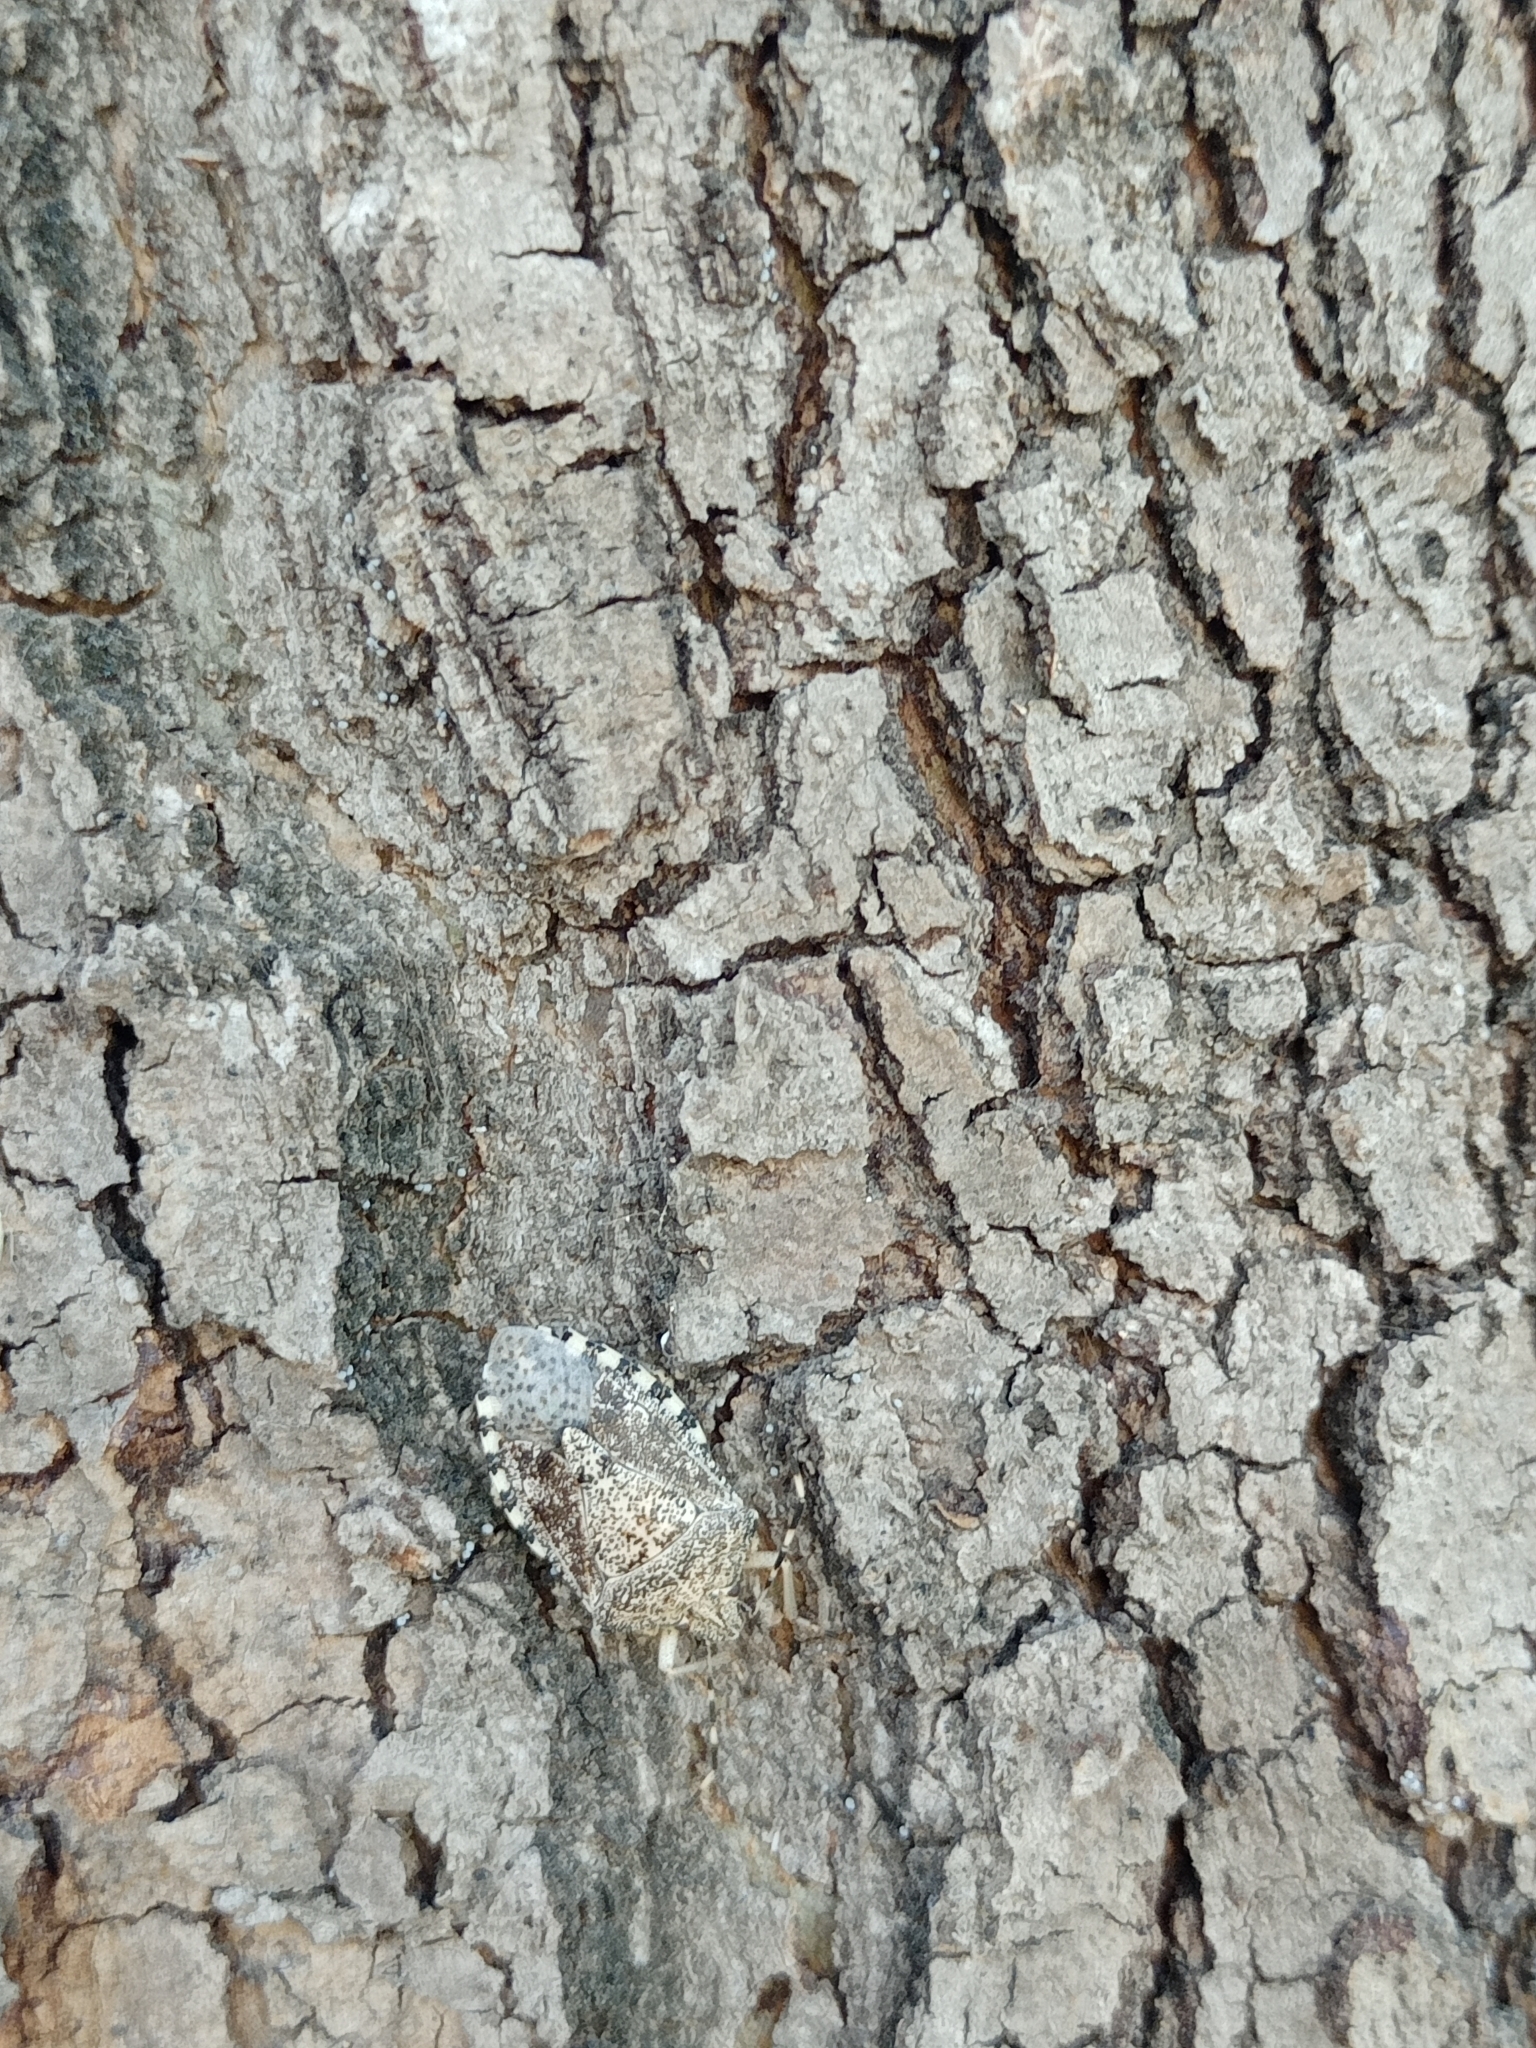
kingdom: Animalia
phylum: Arthropoda
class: Insecta
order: Hemiptera
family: Pentatomidae
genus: Rhaphigaster
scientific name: Rhaphigaster nebulosa
